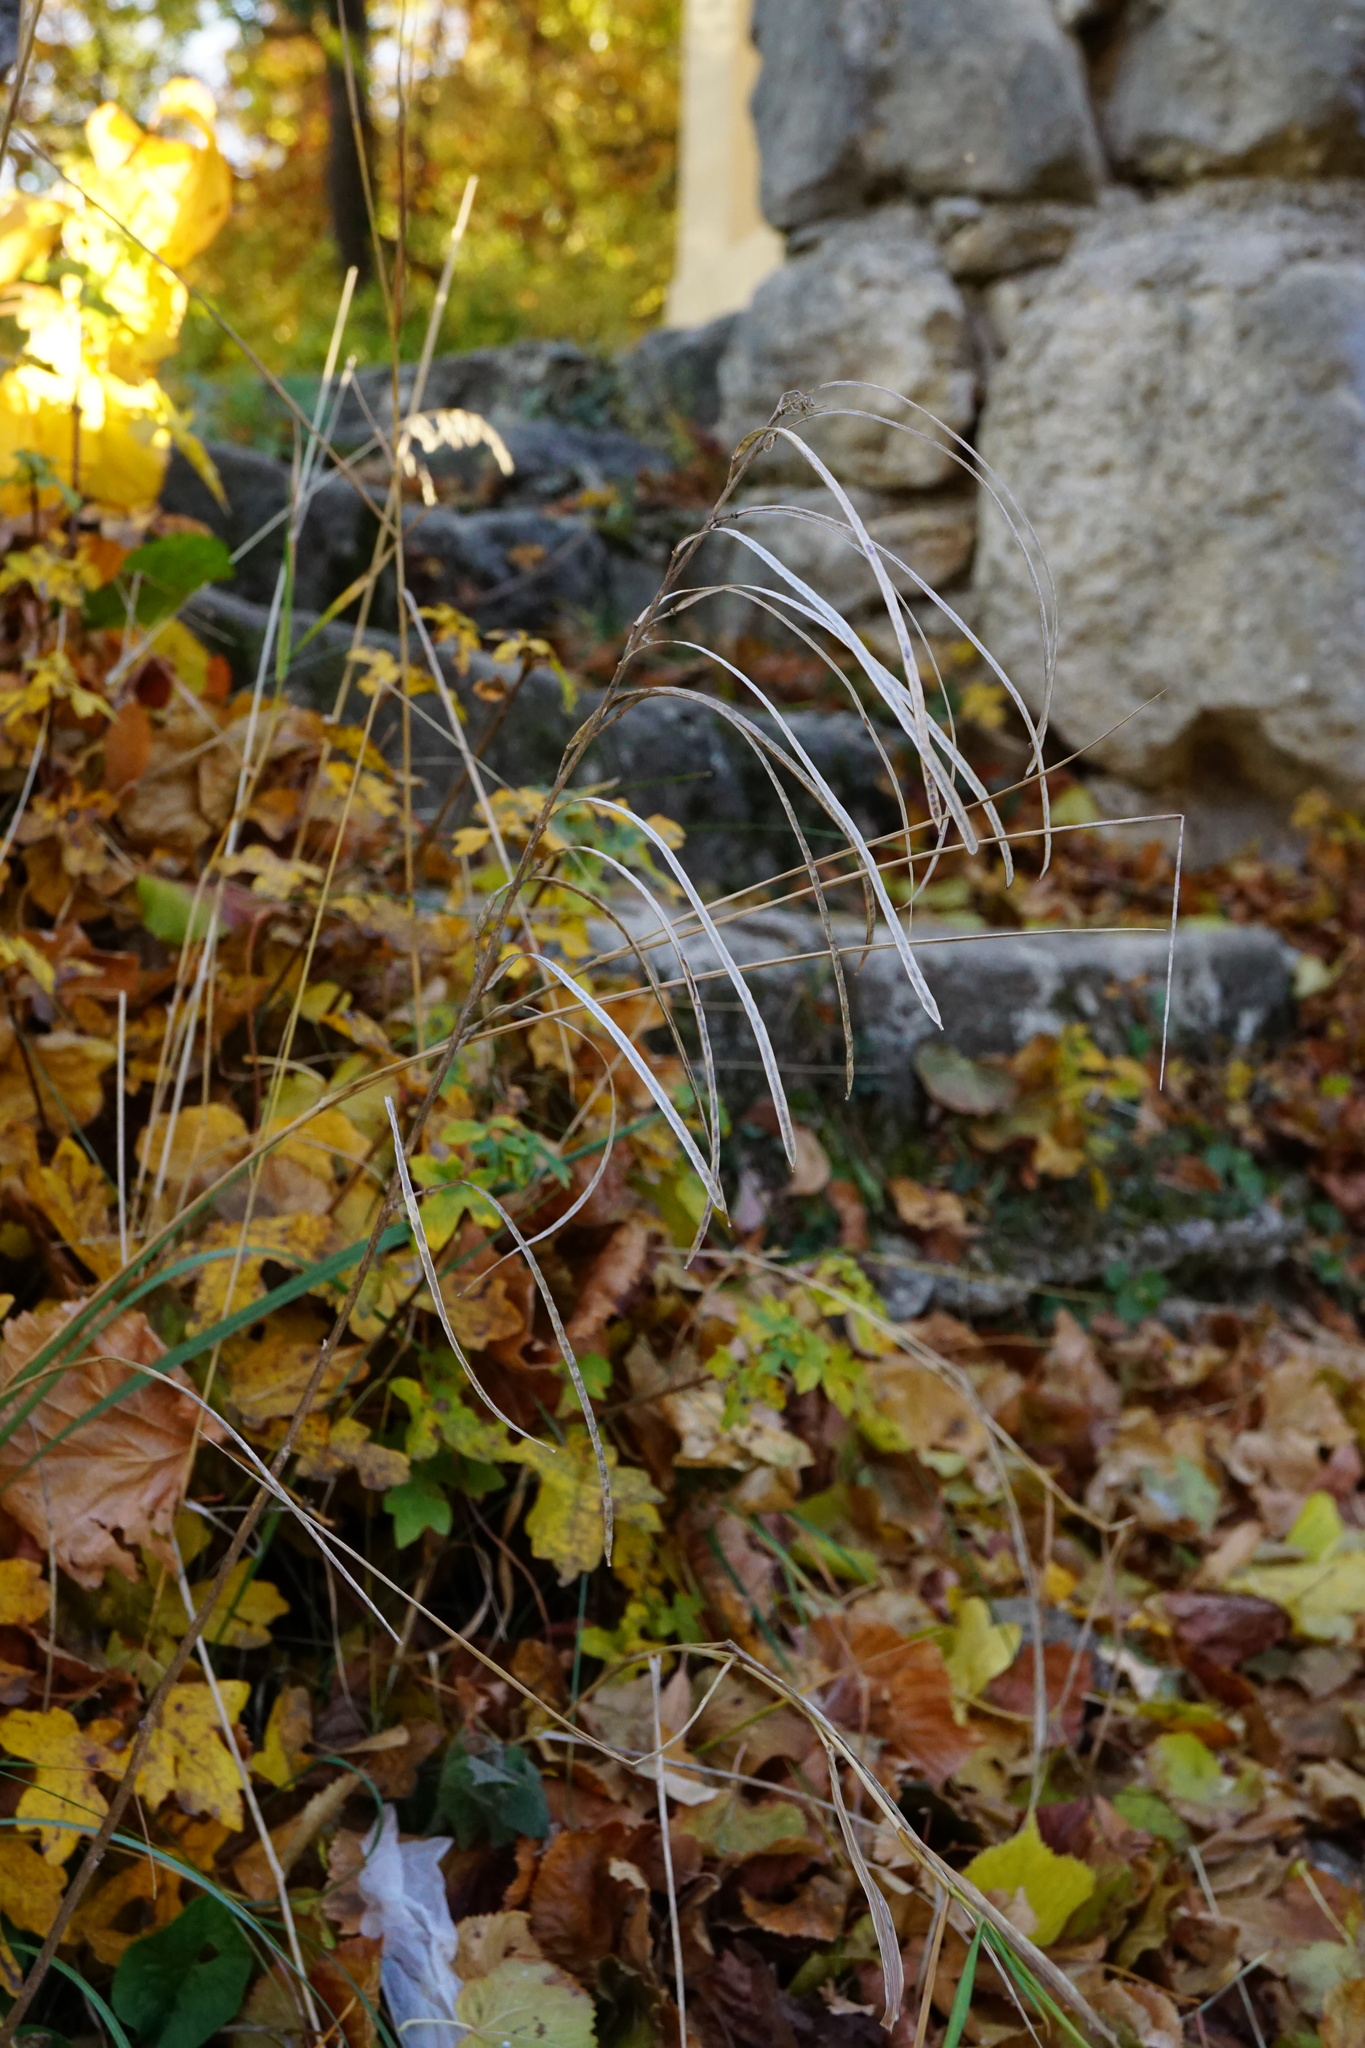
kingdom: Plantae
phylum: Tracheophyta
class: Magnoliopsida
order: Brassicales
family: Brassicaceae
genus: Pseudoturritis
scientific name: Pseudoturritis turrita
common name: Tower cress
